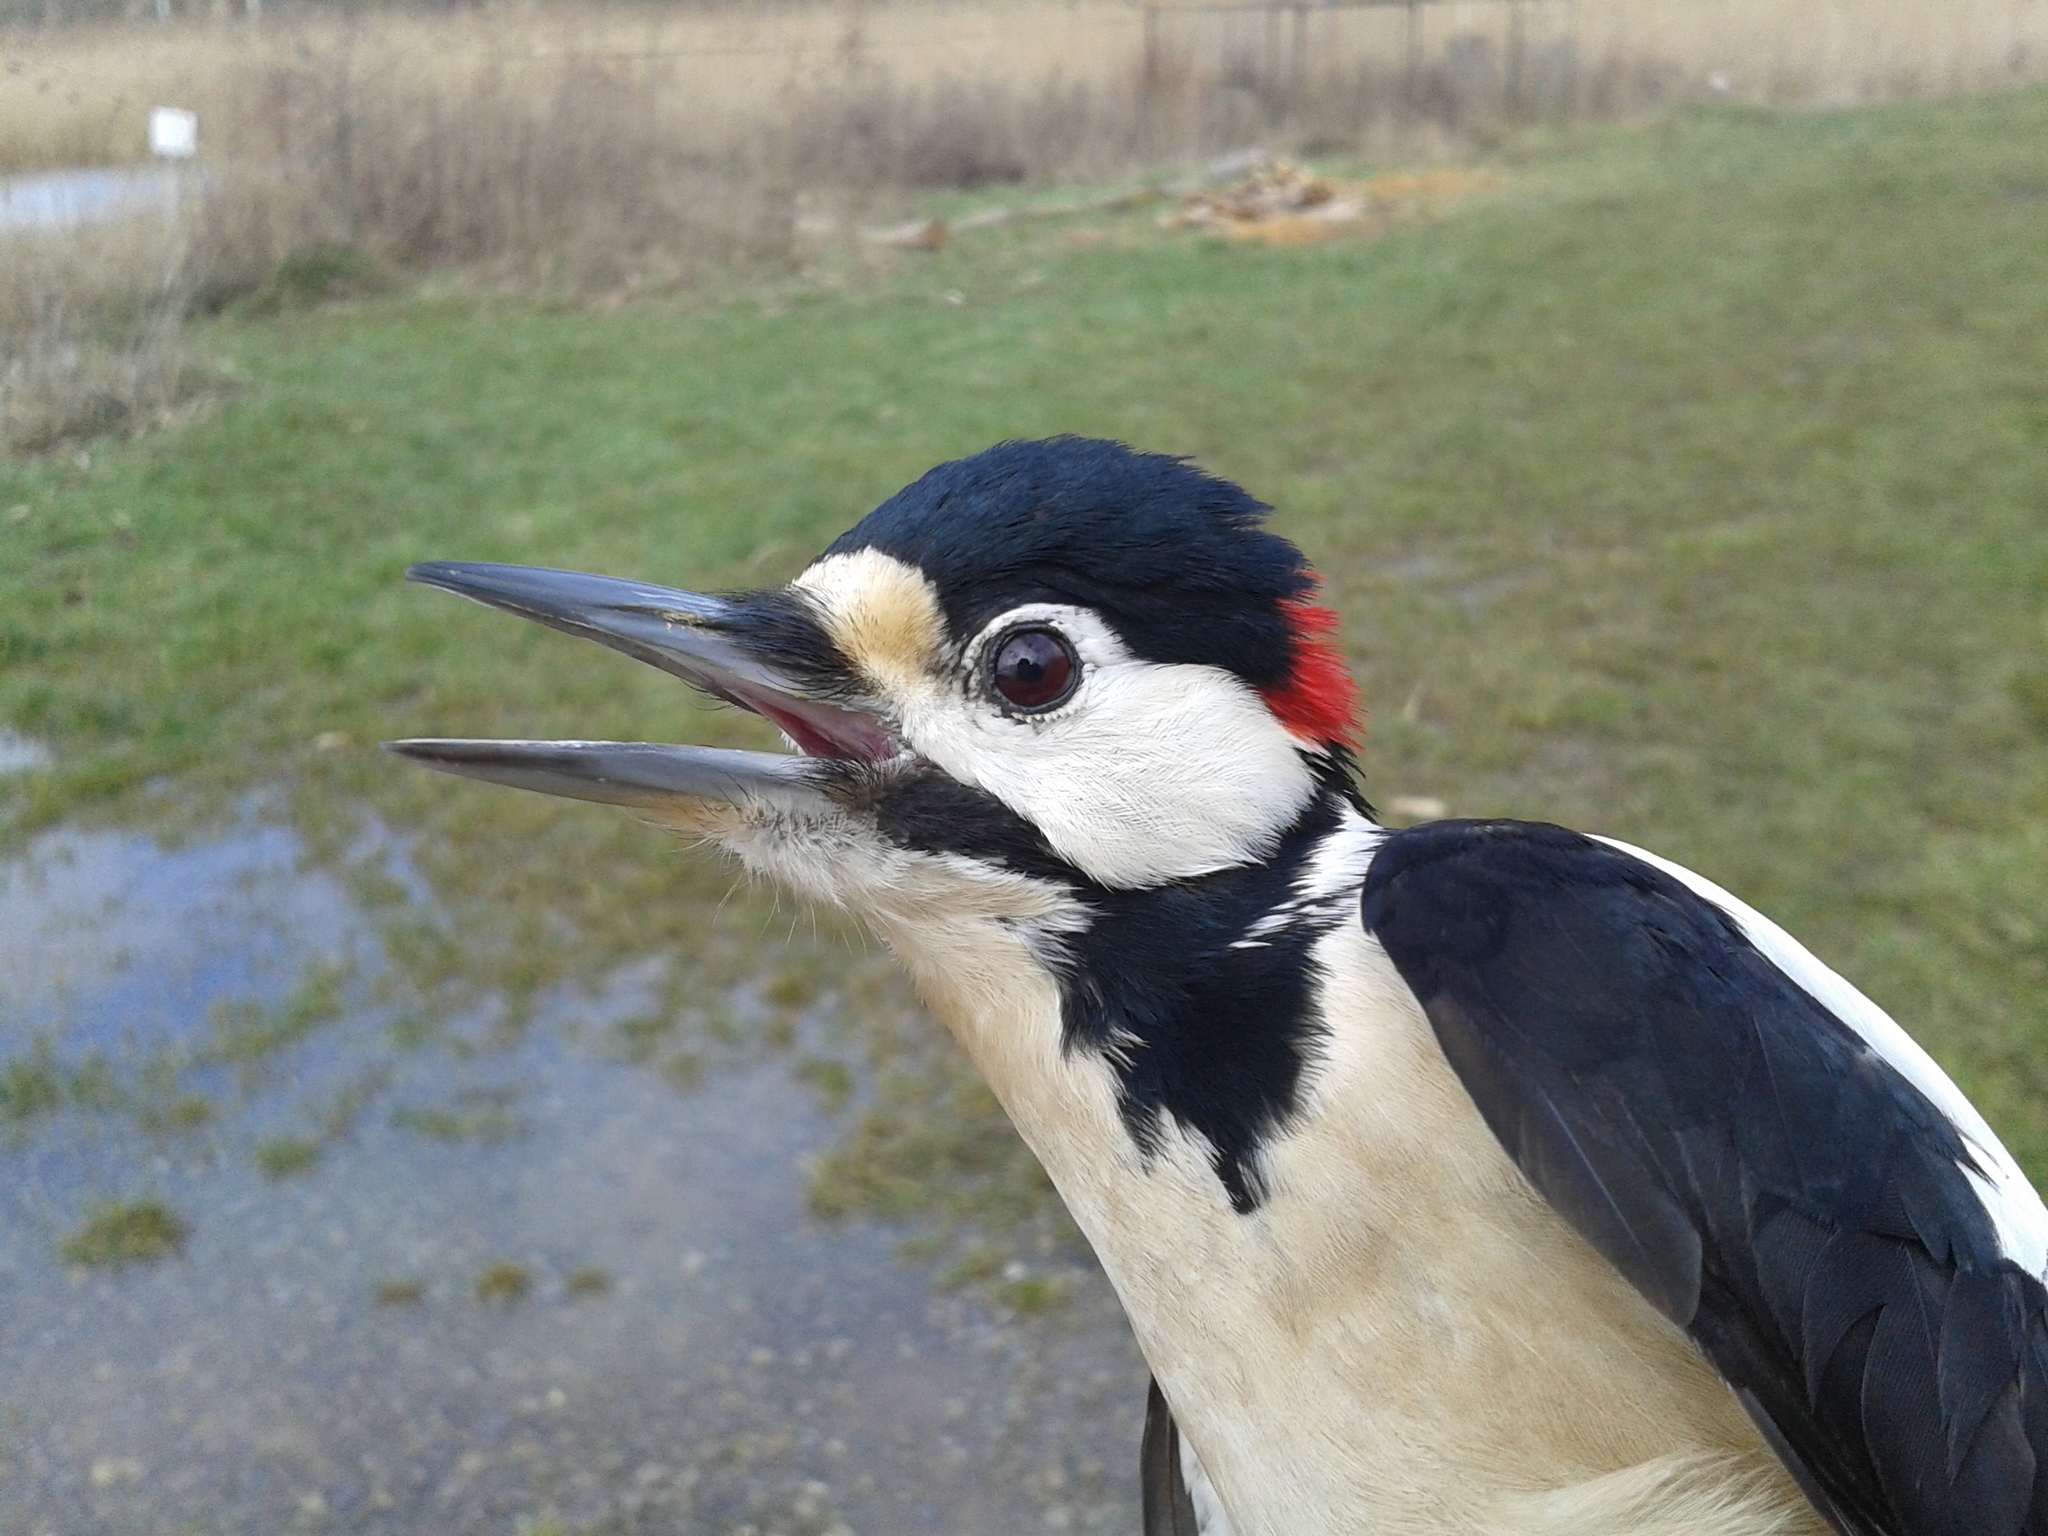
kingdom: Animalia
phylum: Chordata
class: Aves
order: Piciformes
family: Picidae
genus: Dendrocopos
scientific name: Dendrocopos major
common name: Great spotted woodpecker
